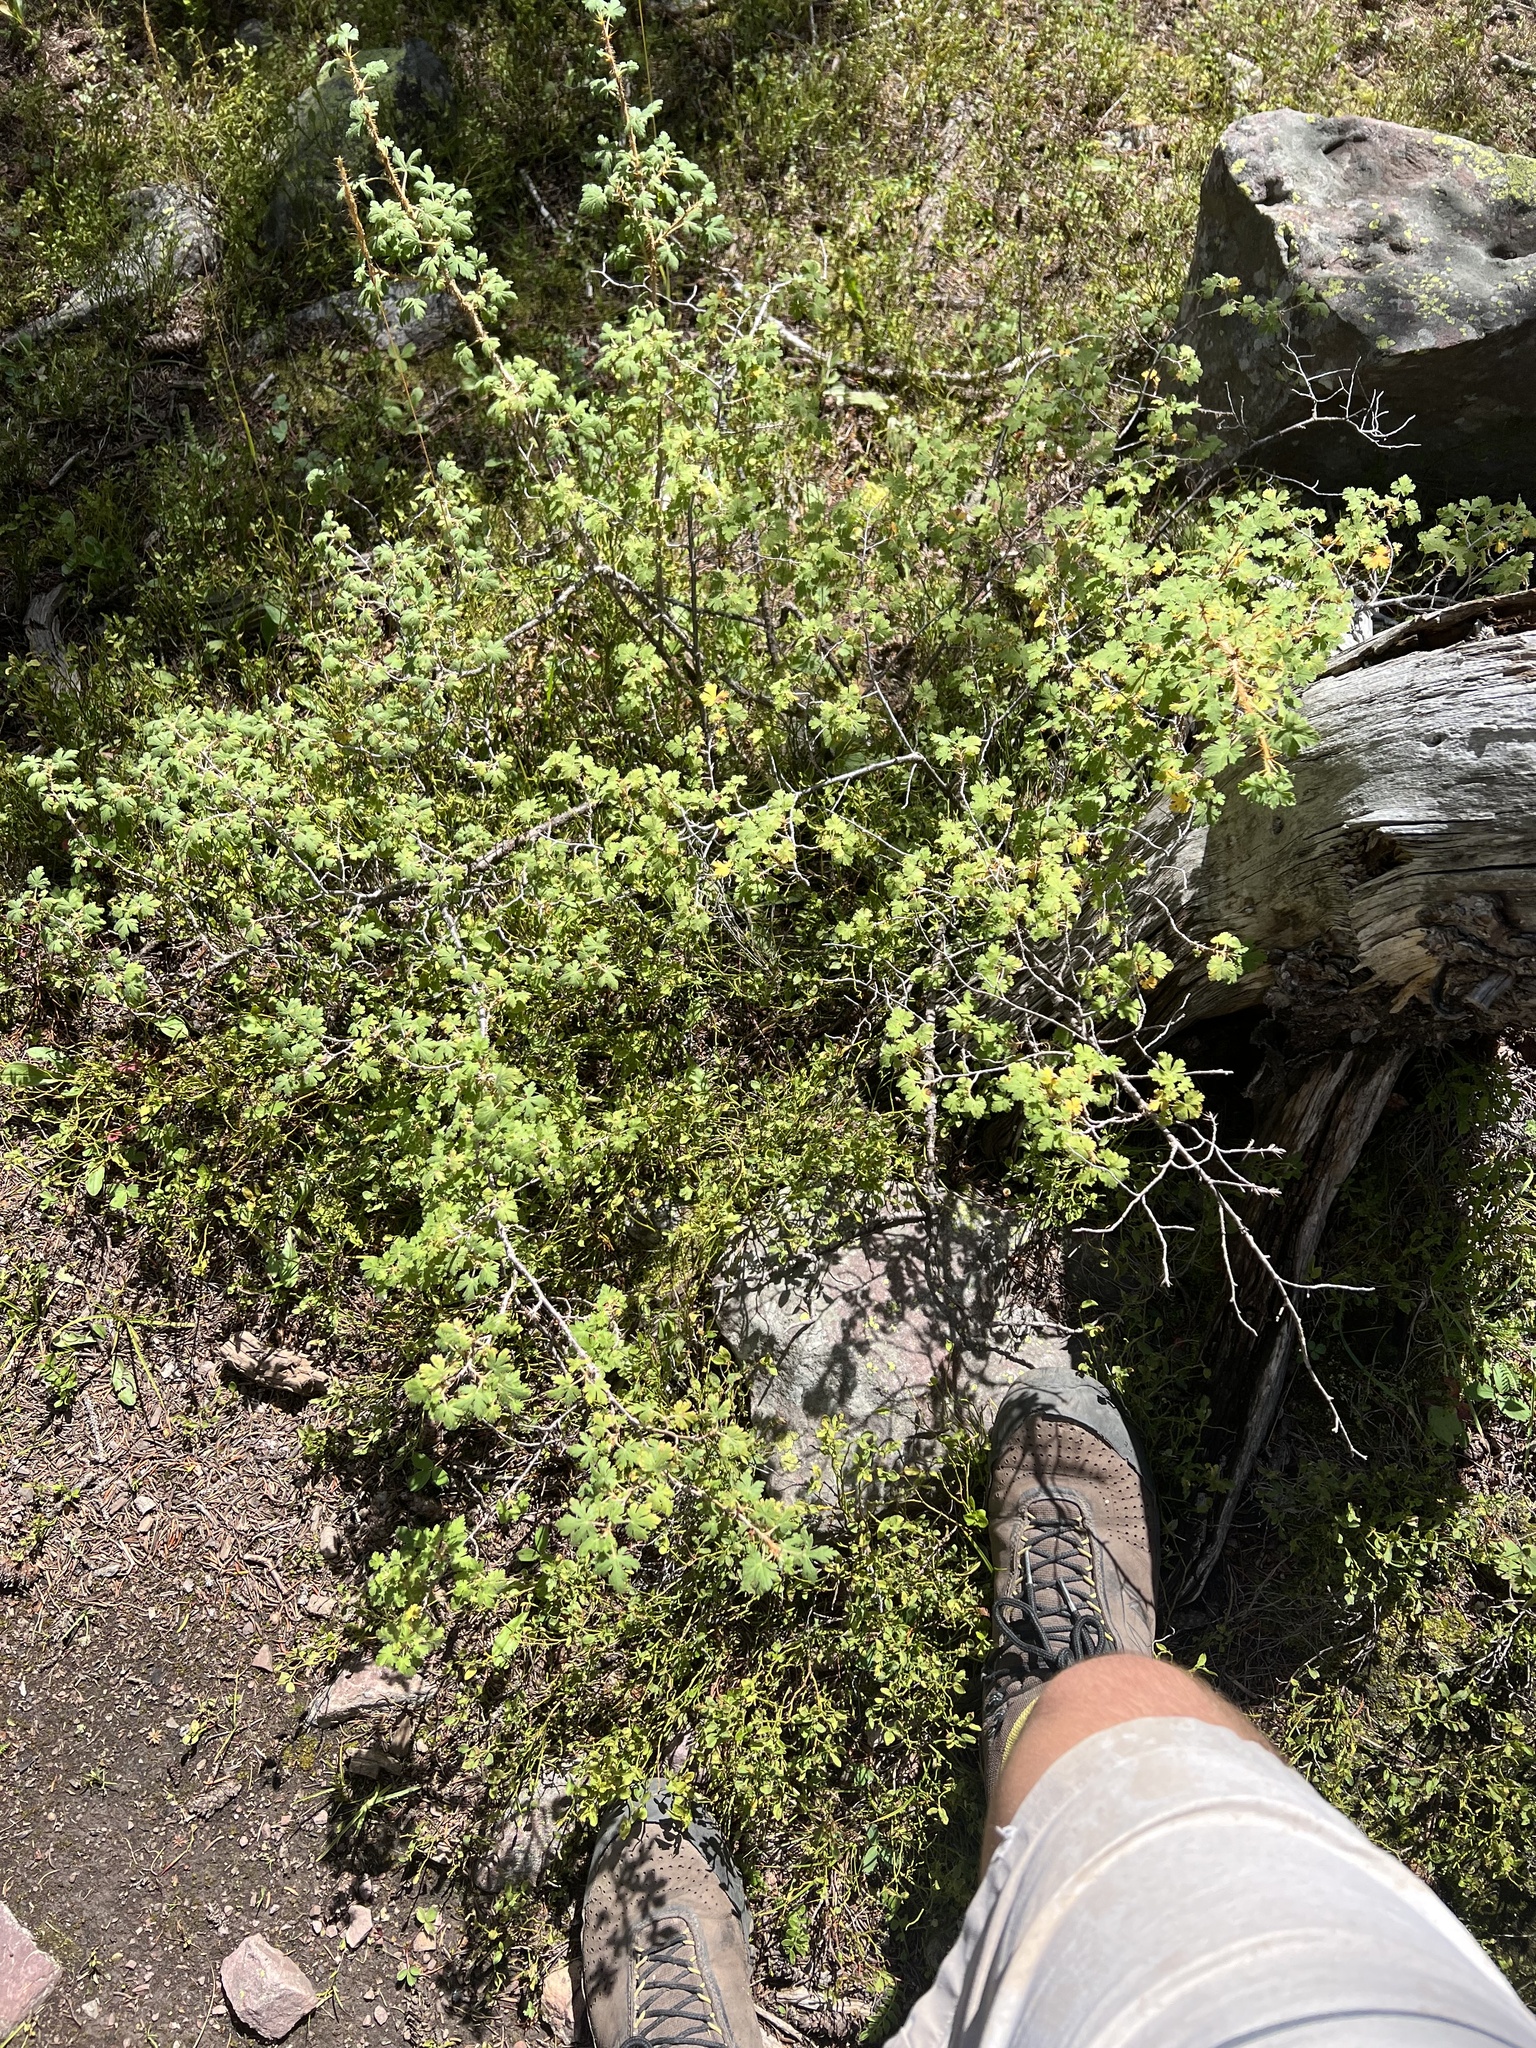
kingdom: Plantae
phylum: Tracheophyta
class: Magnoliopsida
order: Saxifragales
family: Grossulariaceae
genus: Ribes
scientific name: Ribes montigenum
